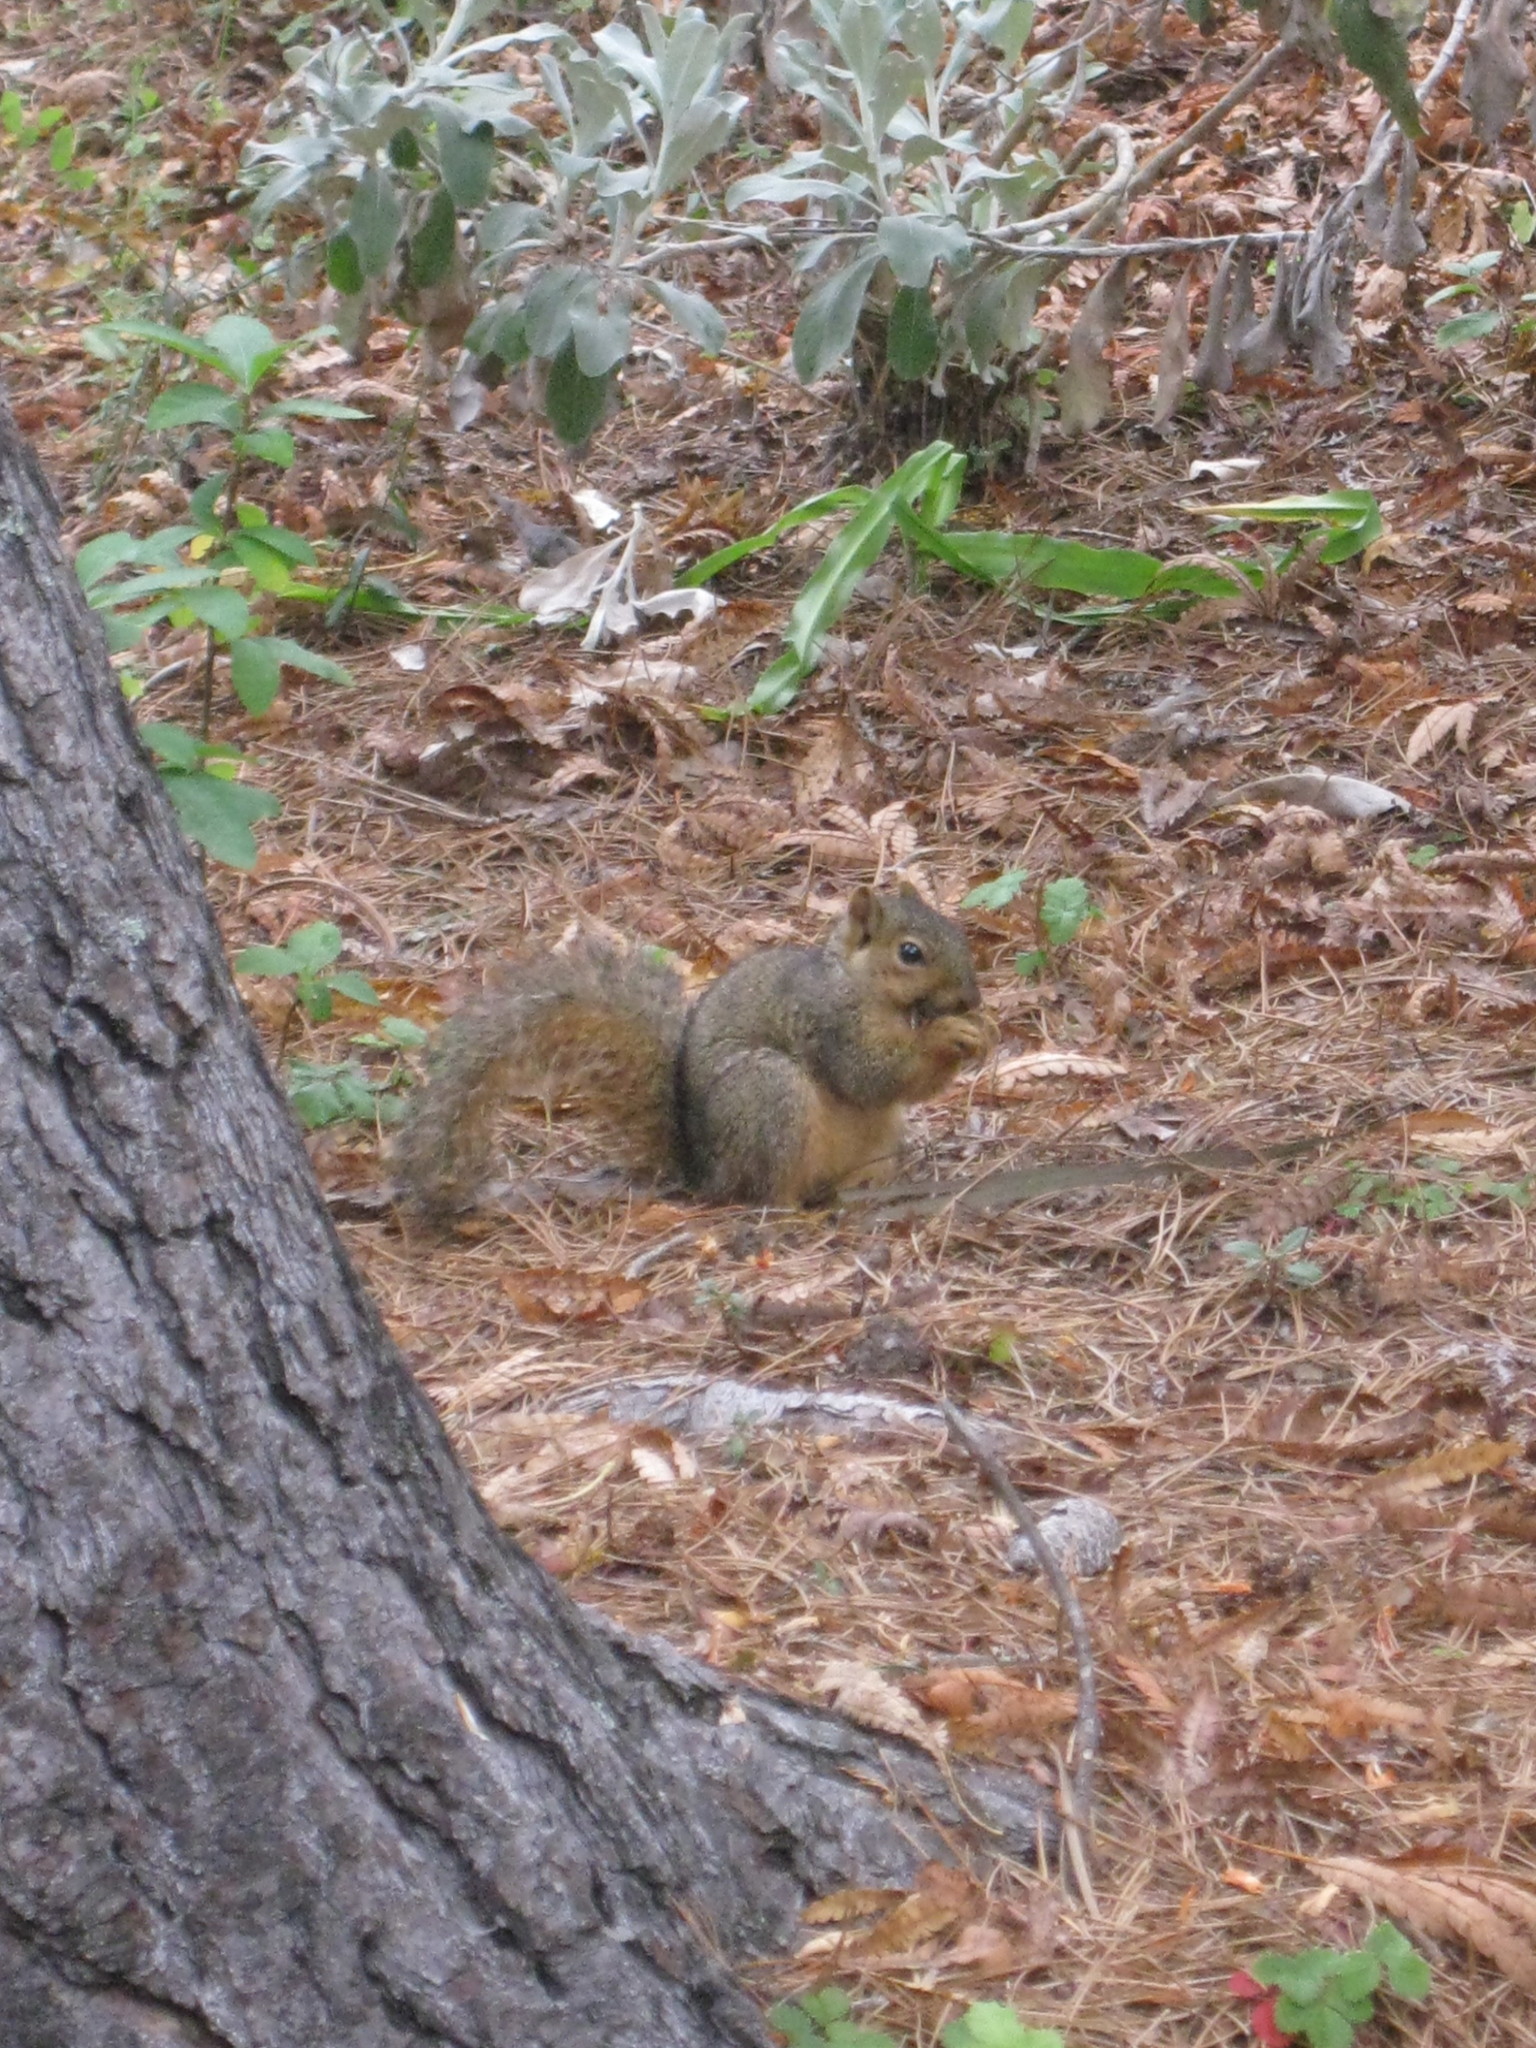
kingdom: Animalia
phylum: Chordata
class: Mammalia
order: Rodentia
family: Sciuridae
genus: Sciurus
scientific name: Sciurus niger
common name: Fox squirrel
